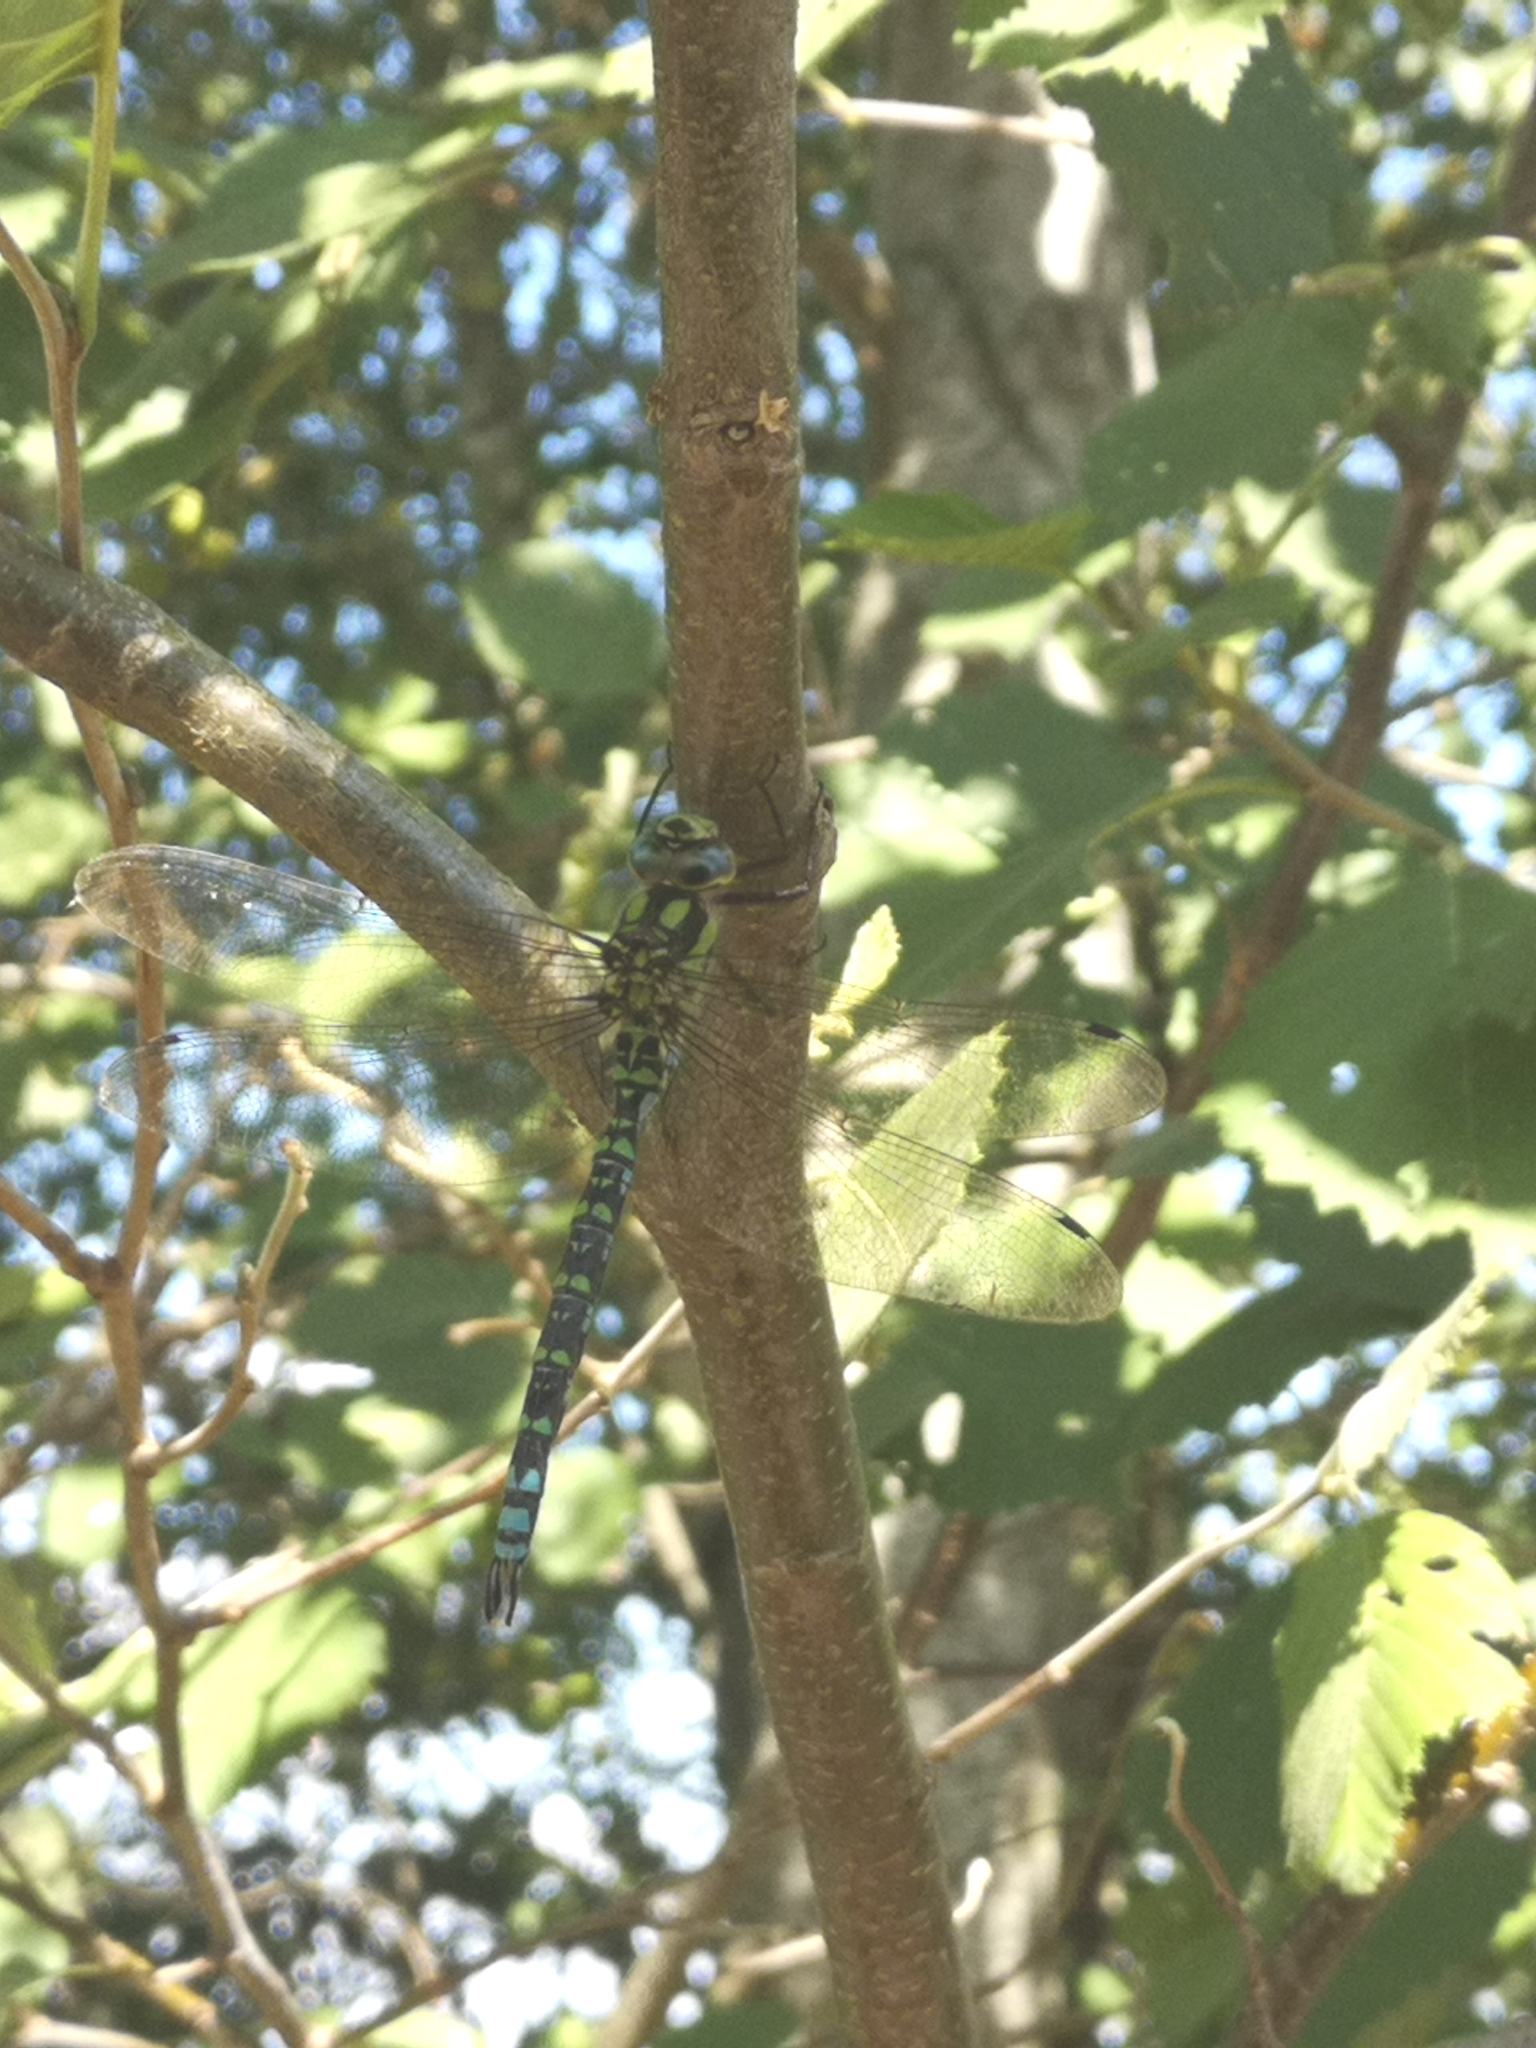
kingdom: Animalia
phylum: Arthropoda
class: Insecta
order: Odonata
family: Aeshnidae
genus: Aeshna
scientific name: Aeshna cyanea
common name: Southern hawker
